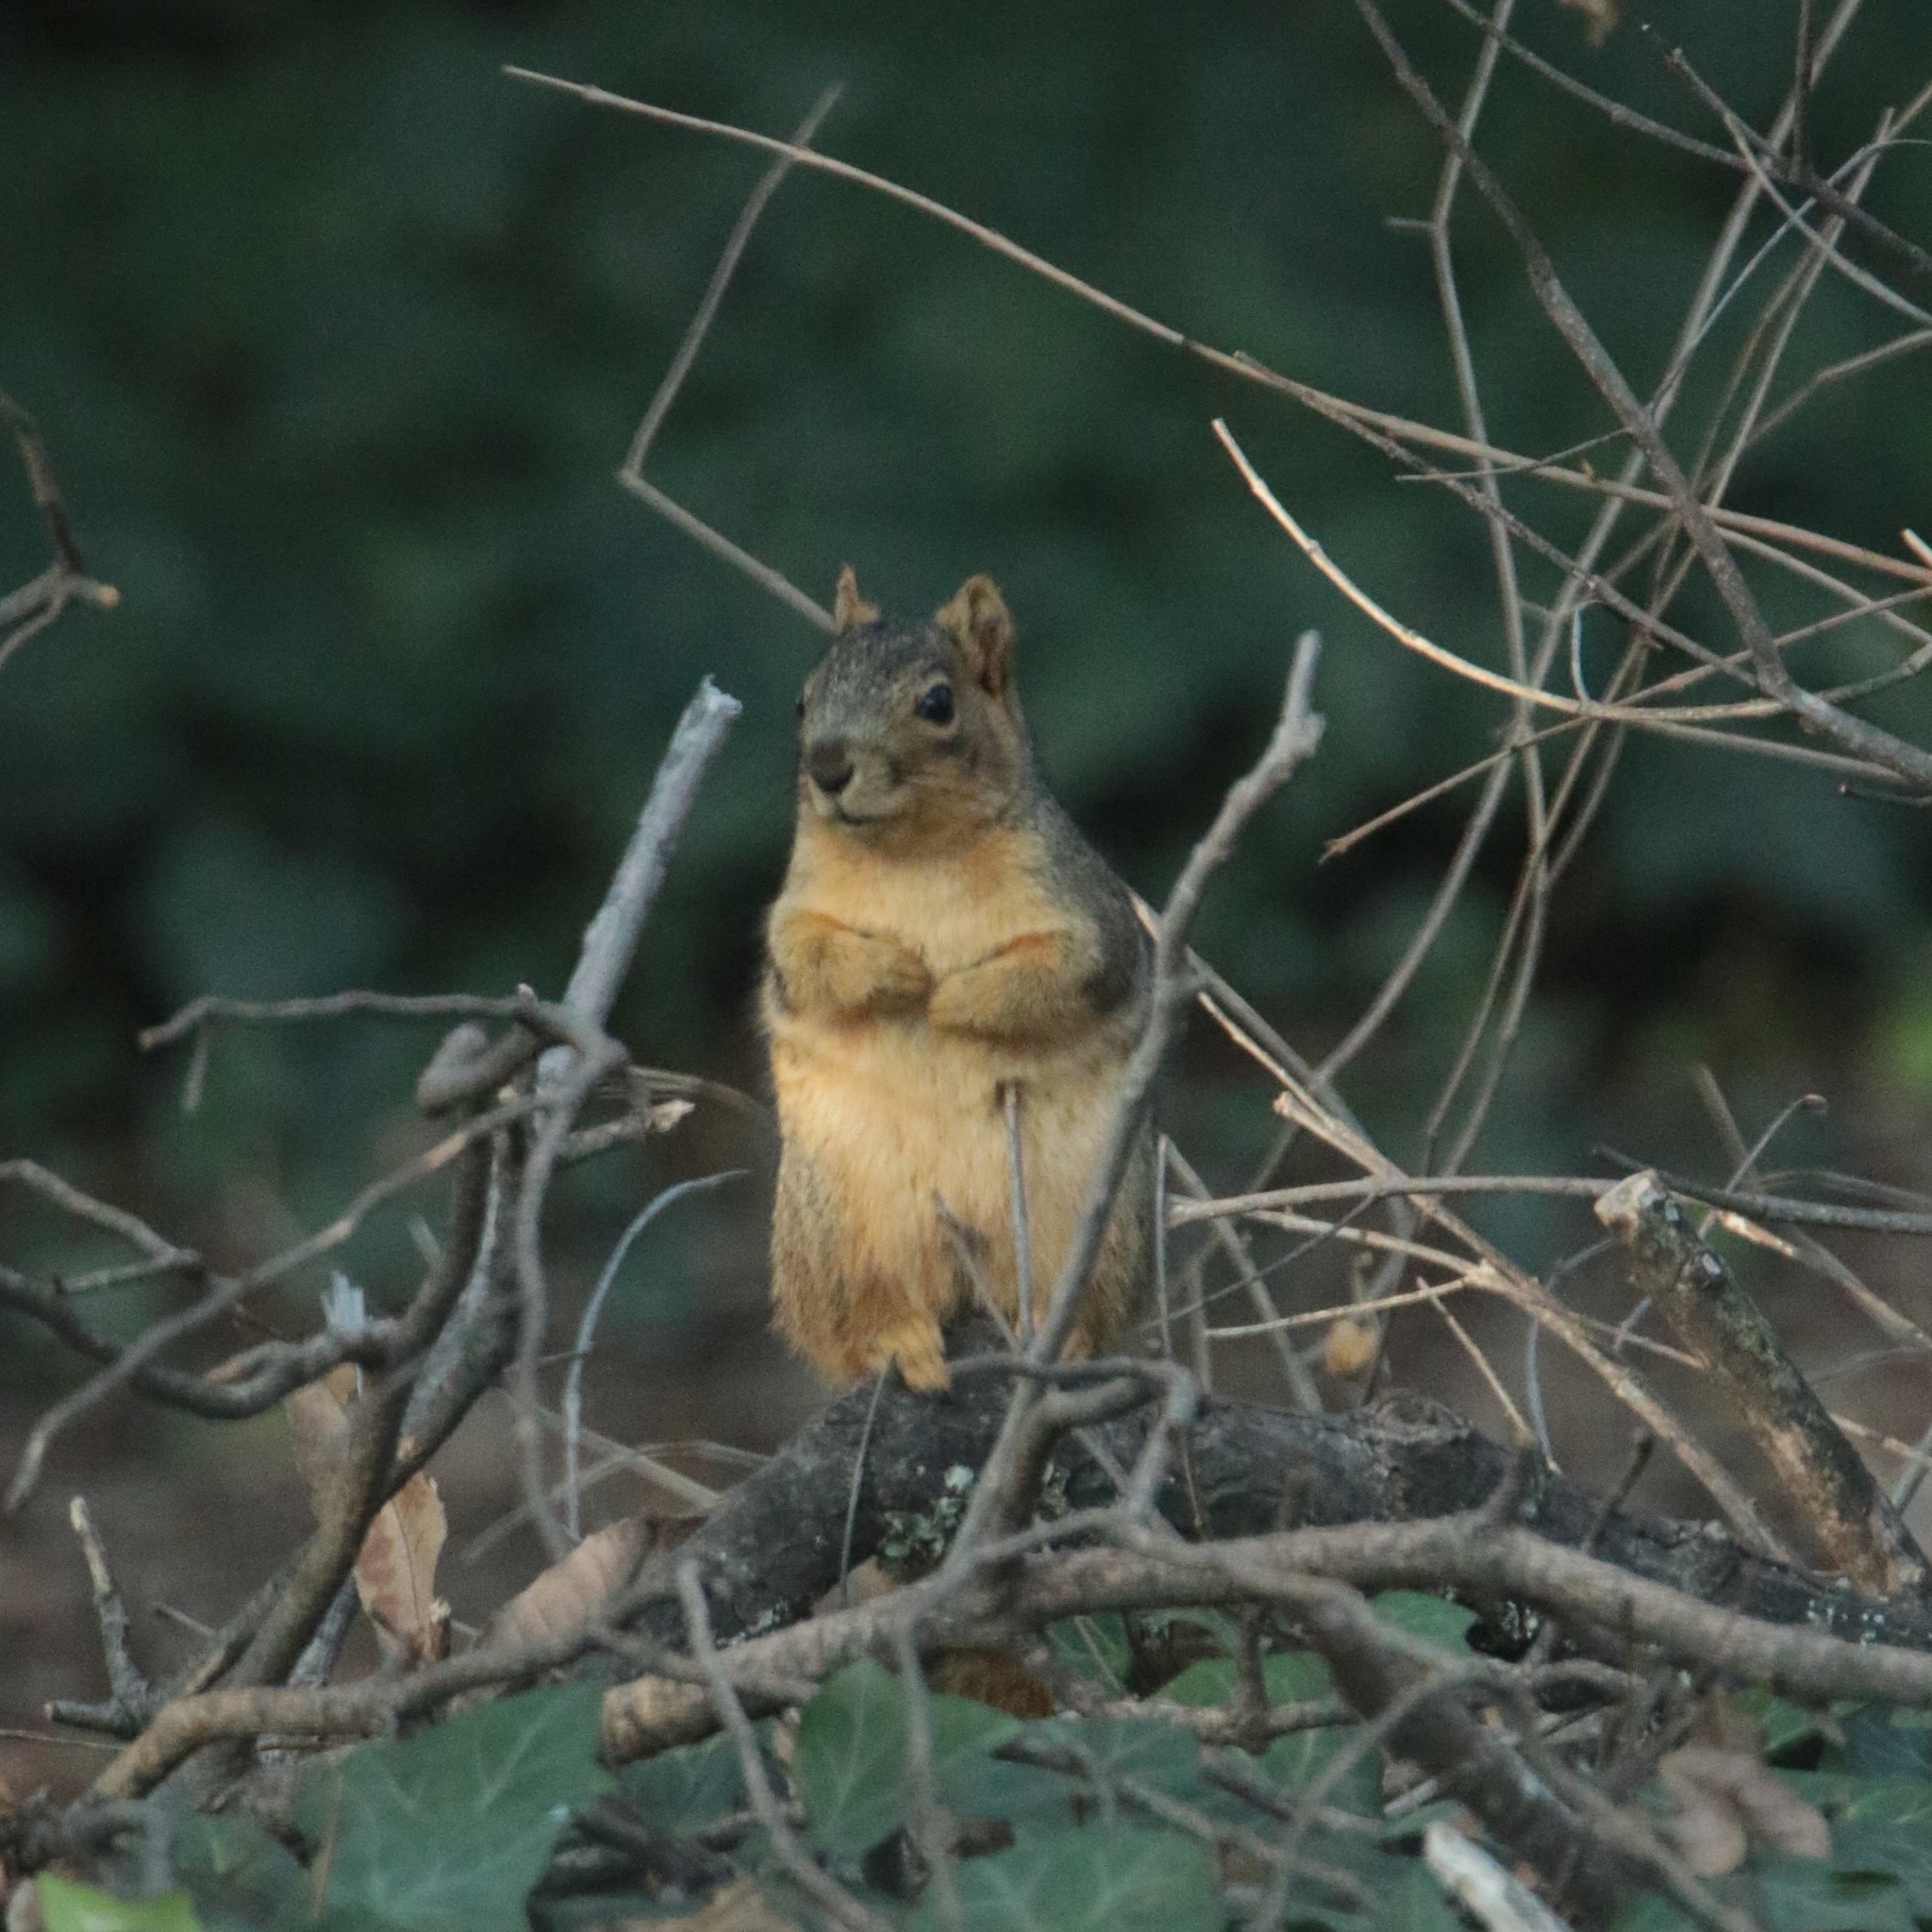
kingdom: Animalia
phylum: Chordata
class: Mammalia
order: Rodentia
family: Sciuridae
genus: Sciurus
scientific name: Sciurus niger
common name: Fox squirrel
